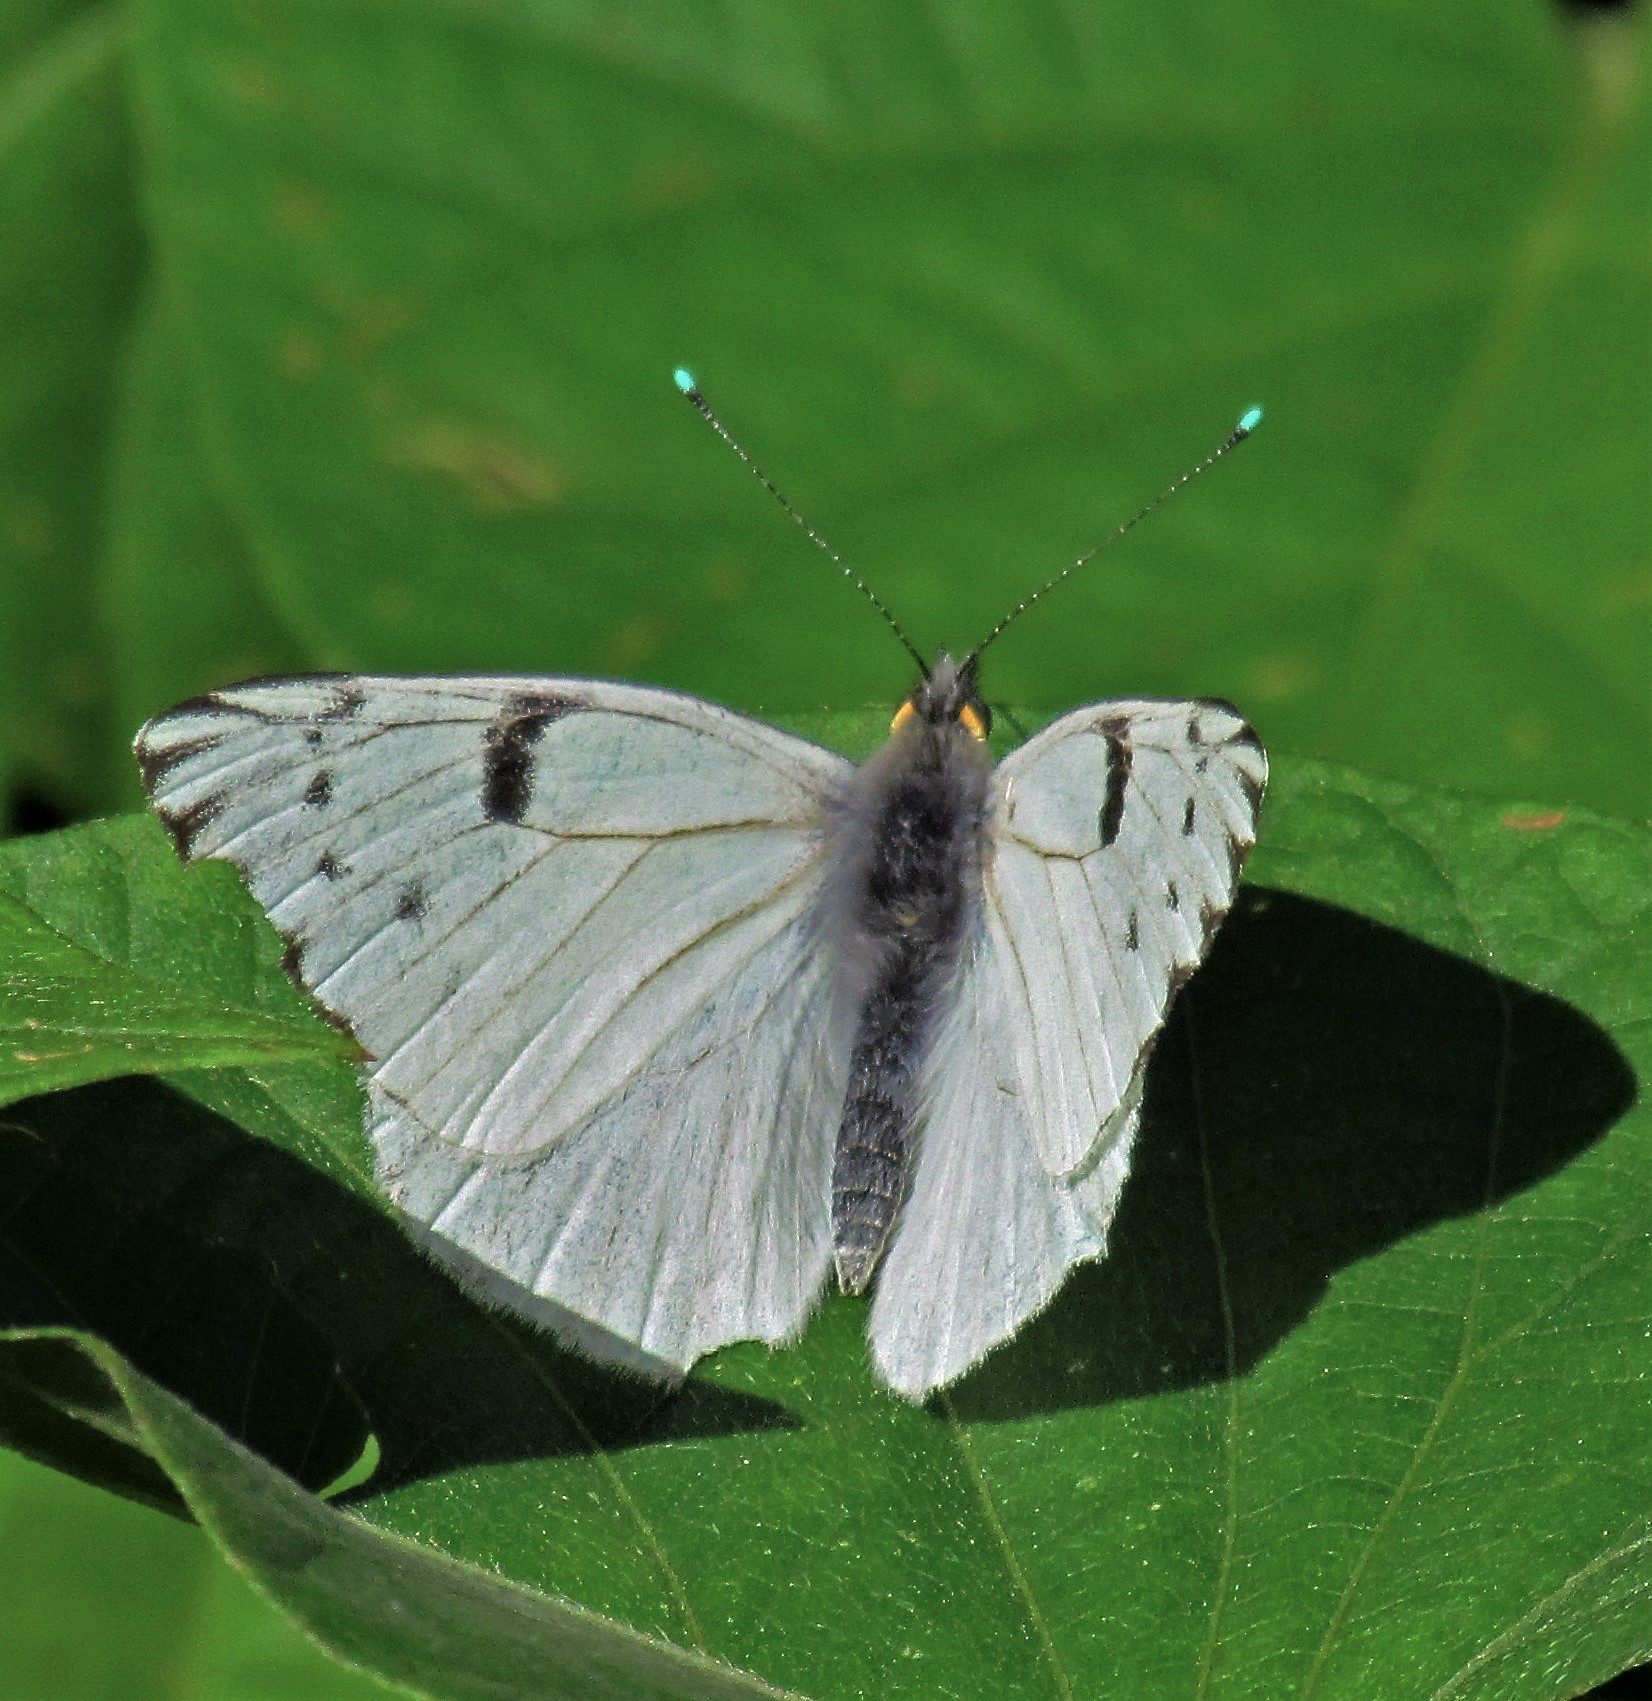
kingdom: Animalia
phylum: Arthropoda
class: Insecta
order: Lepidoptera
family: Pieridae
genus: Tatochila
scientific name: Tatochila autodice
